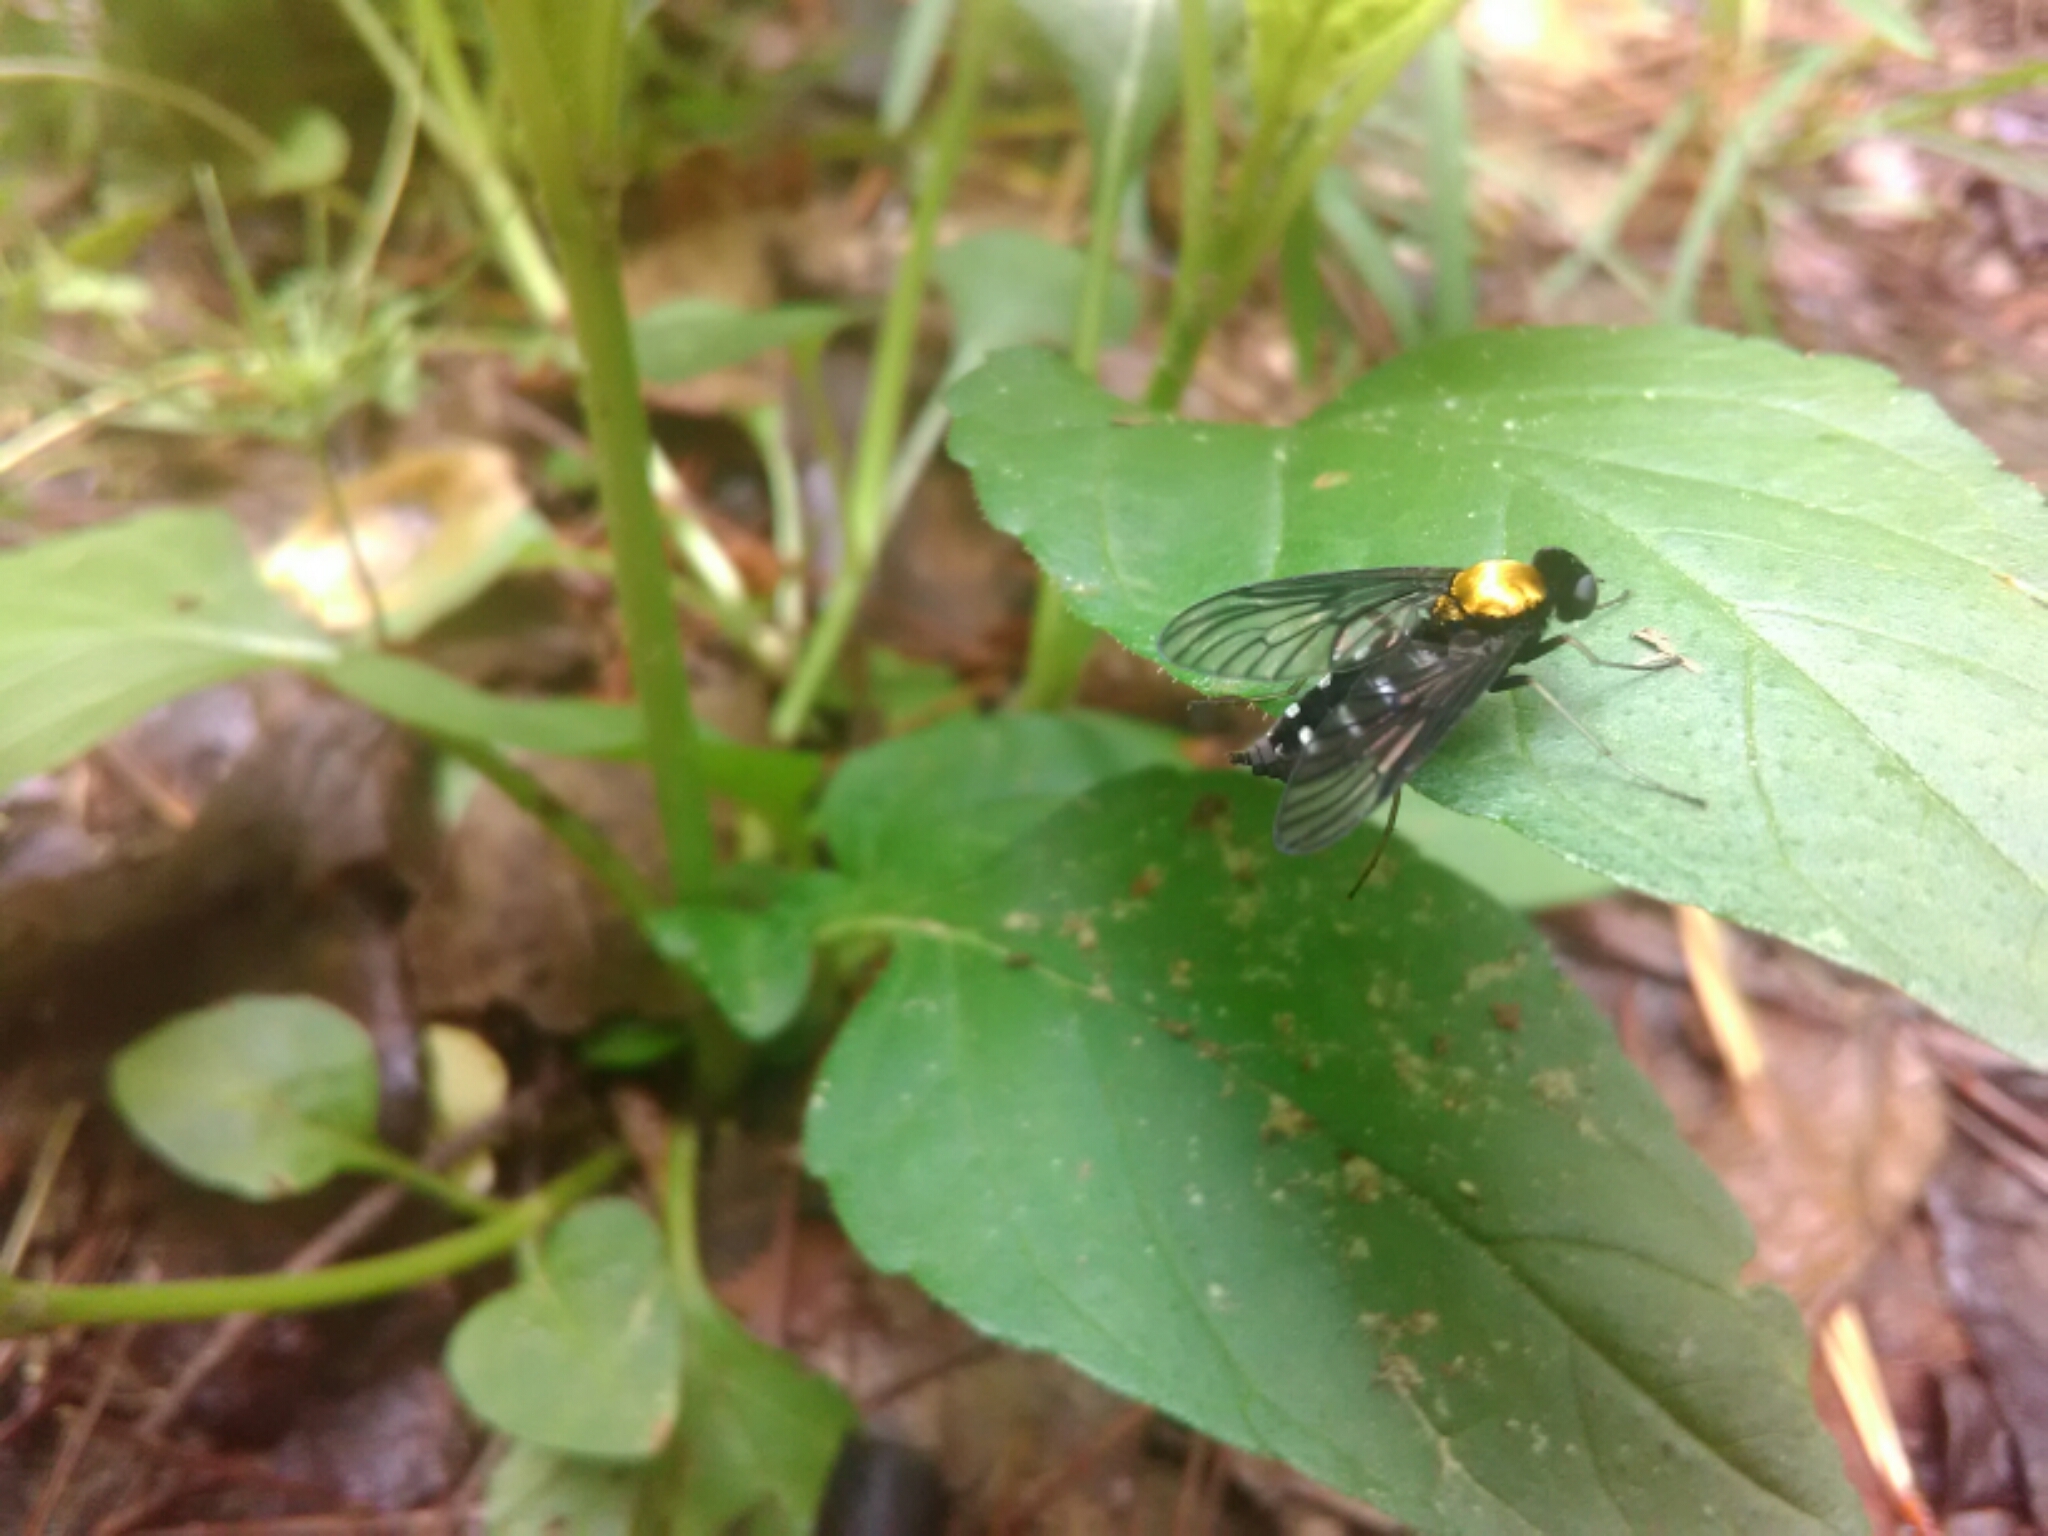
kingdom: Animalia
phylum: Arthropoda
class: Insecta
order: Diptera
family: Rhagionidae
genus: Chrysopilus
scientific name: Chrysopilus thoracicus
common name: Golden-backed snipe fly
